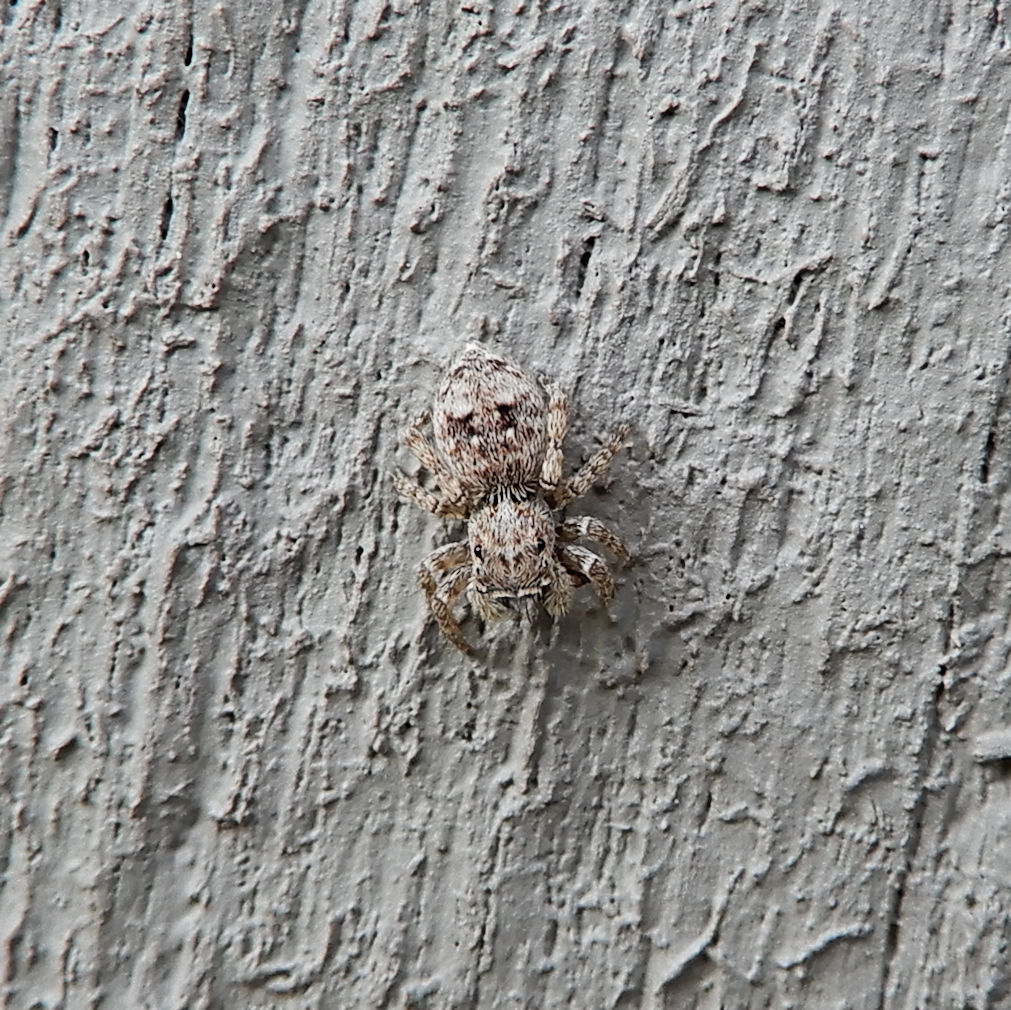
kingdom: Animalia
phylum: Arthropoda
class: Arachnida
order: Araneae
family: Salticidae
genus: Attulus
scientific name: Attulus fasciger
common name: Asiatic wall jumping spider
